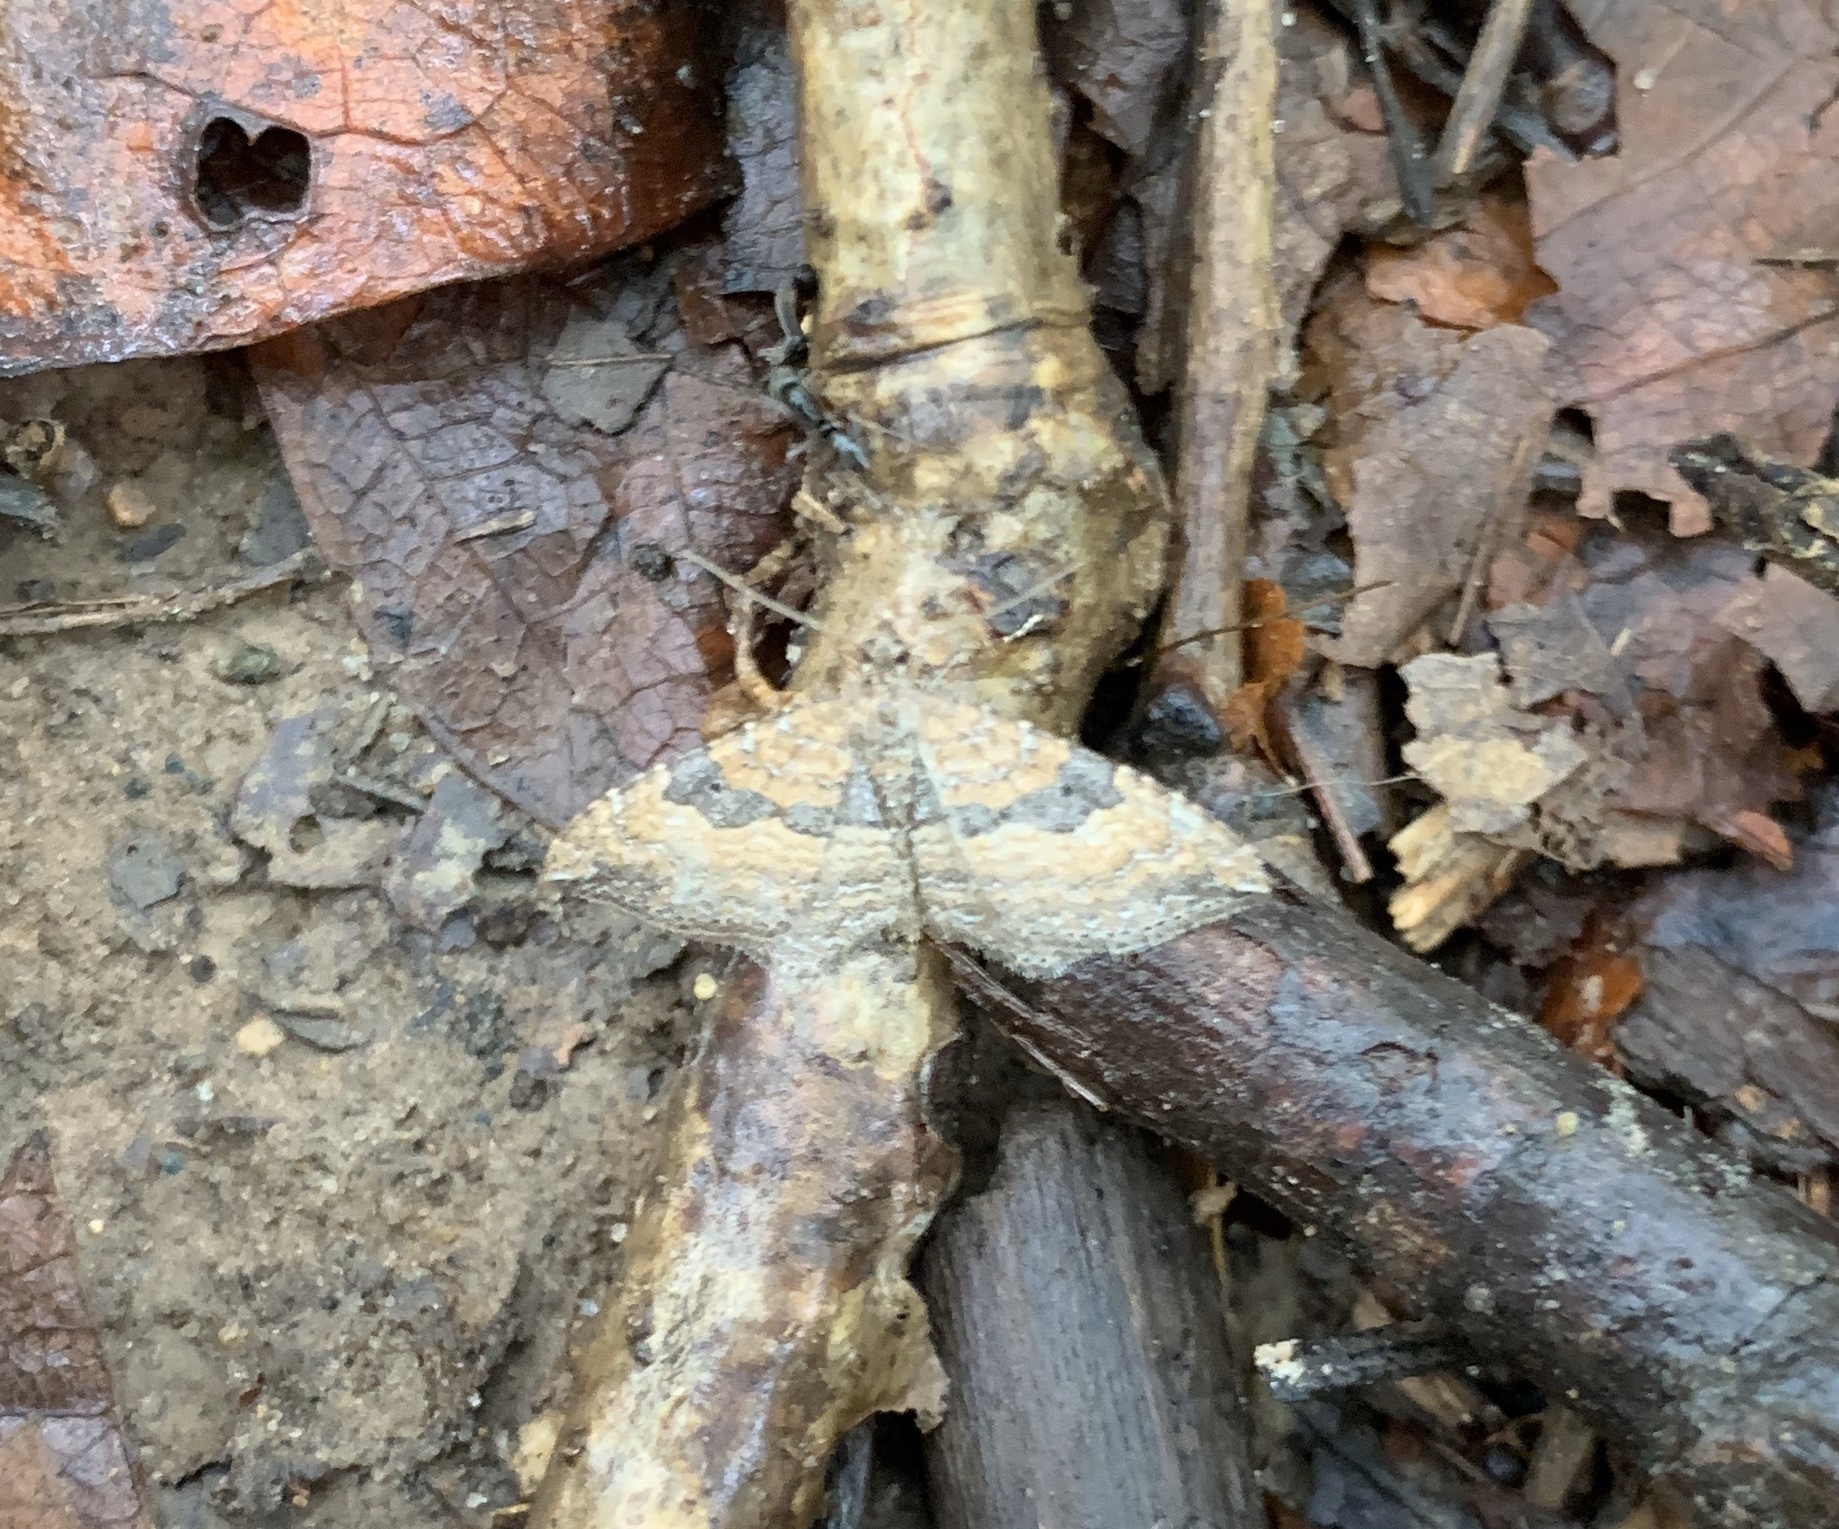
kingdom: Animalia
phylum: Arthropoda
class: Insecta
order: Lepidoptera
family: Geometridae
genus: Orthonama
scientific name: Orthonama obstipata
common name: The gem
